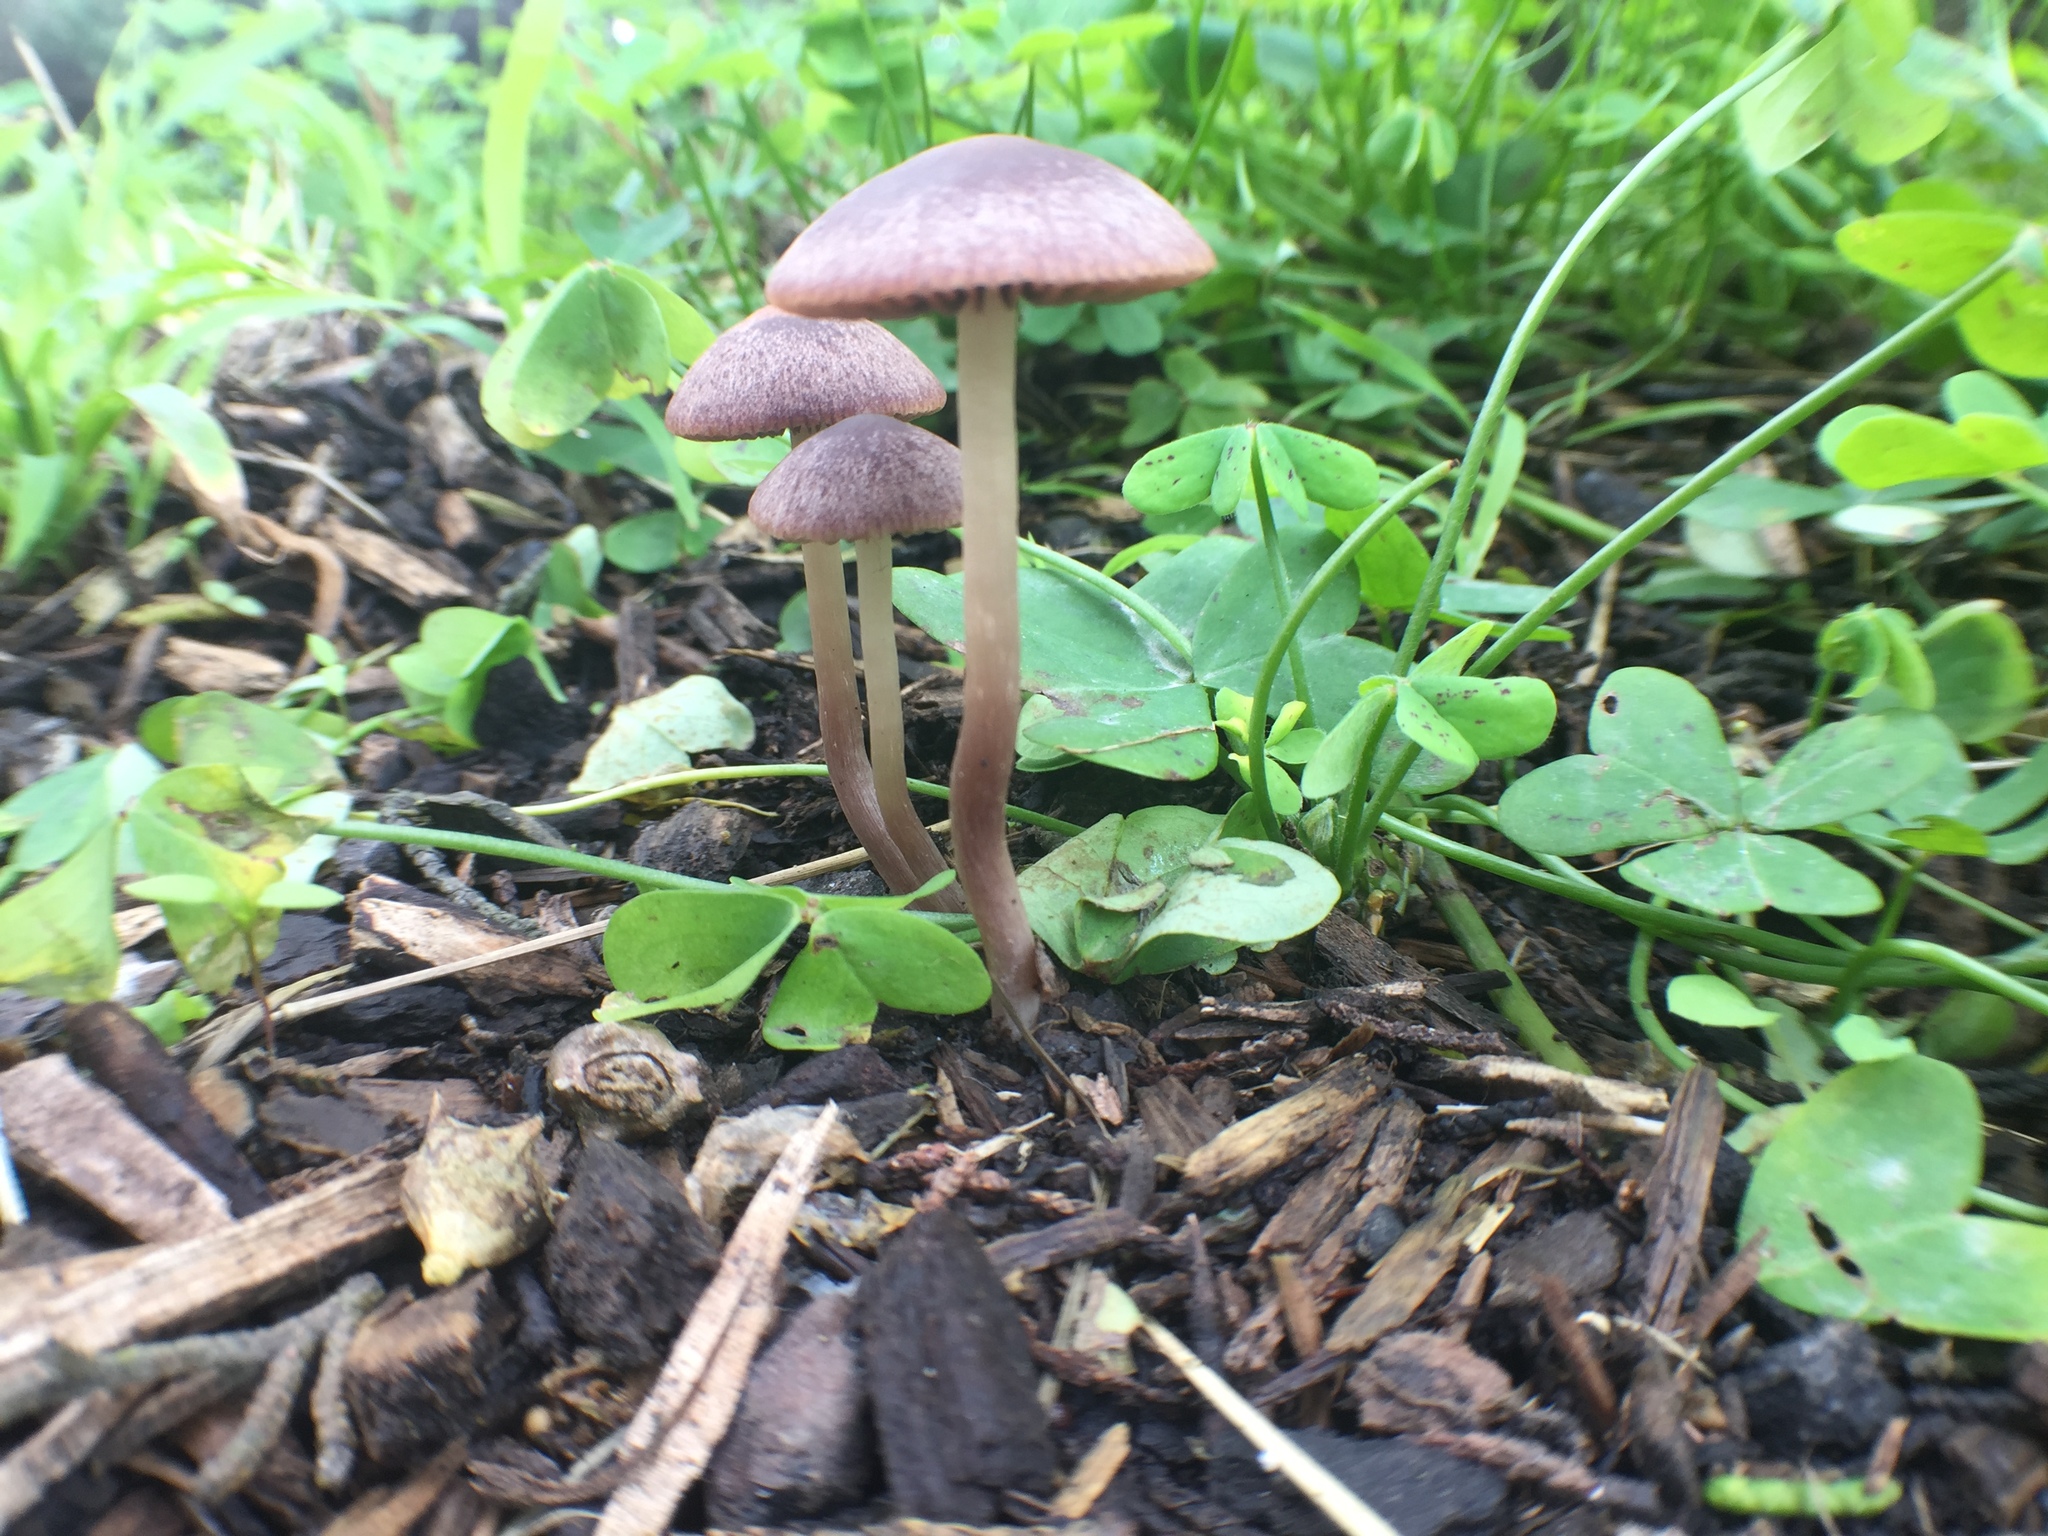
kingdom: Fungi
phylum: Basidiomycota
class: Agaricomycetes
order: Agaricales
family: Psathyrellaceae
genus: Psathyrella
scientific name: Psathyrella bipellis
